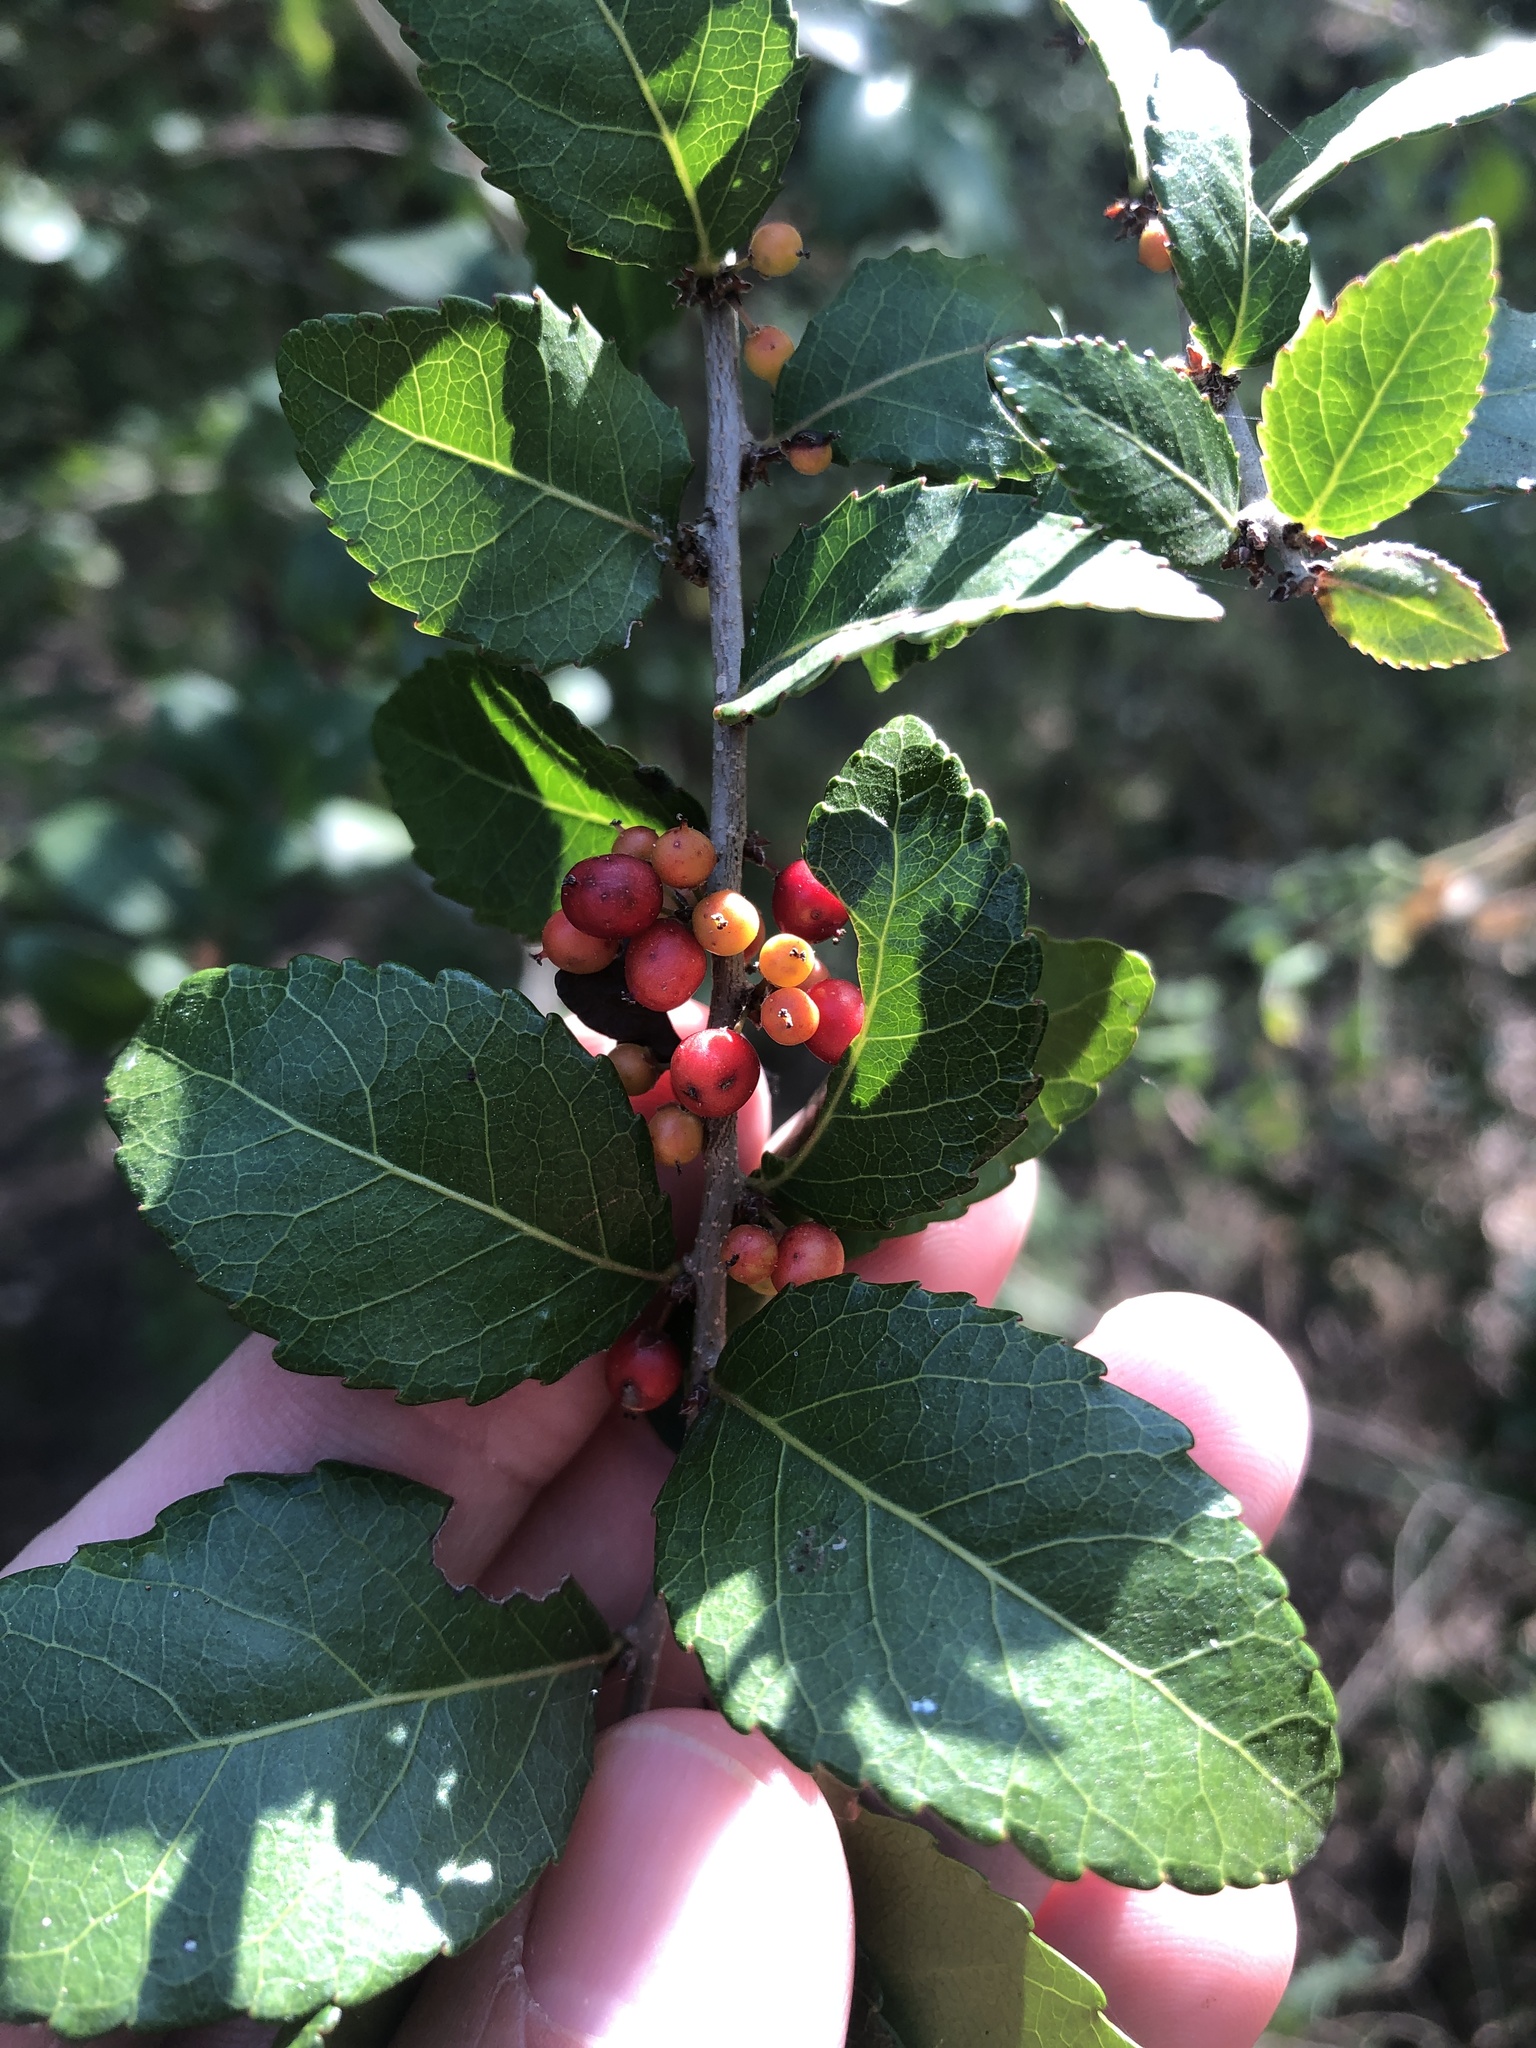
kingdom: Plantae
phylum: Tracheophyta
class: Magnoliopsida
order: Malpighiales
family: Salicaceae
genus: Xylosma
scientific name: Xylosma flexuosa
